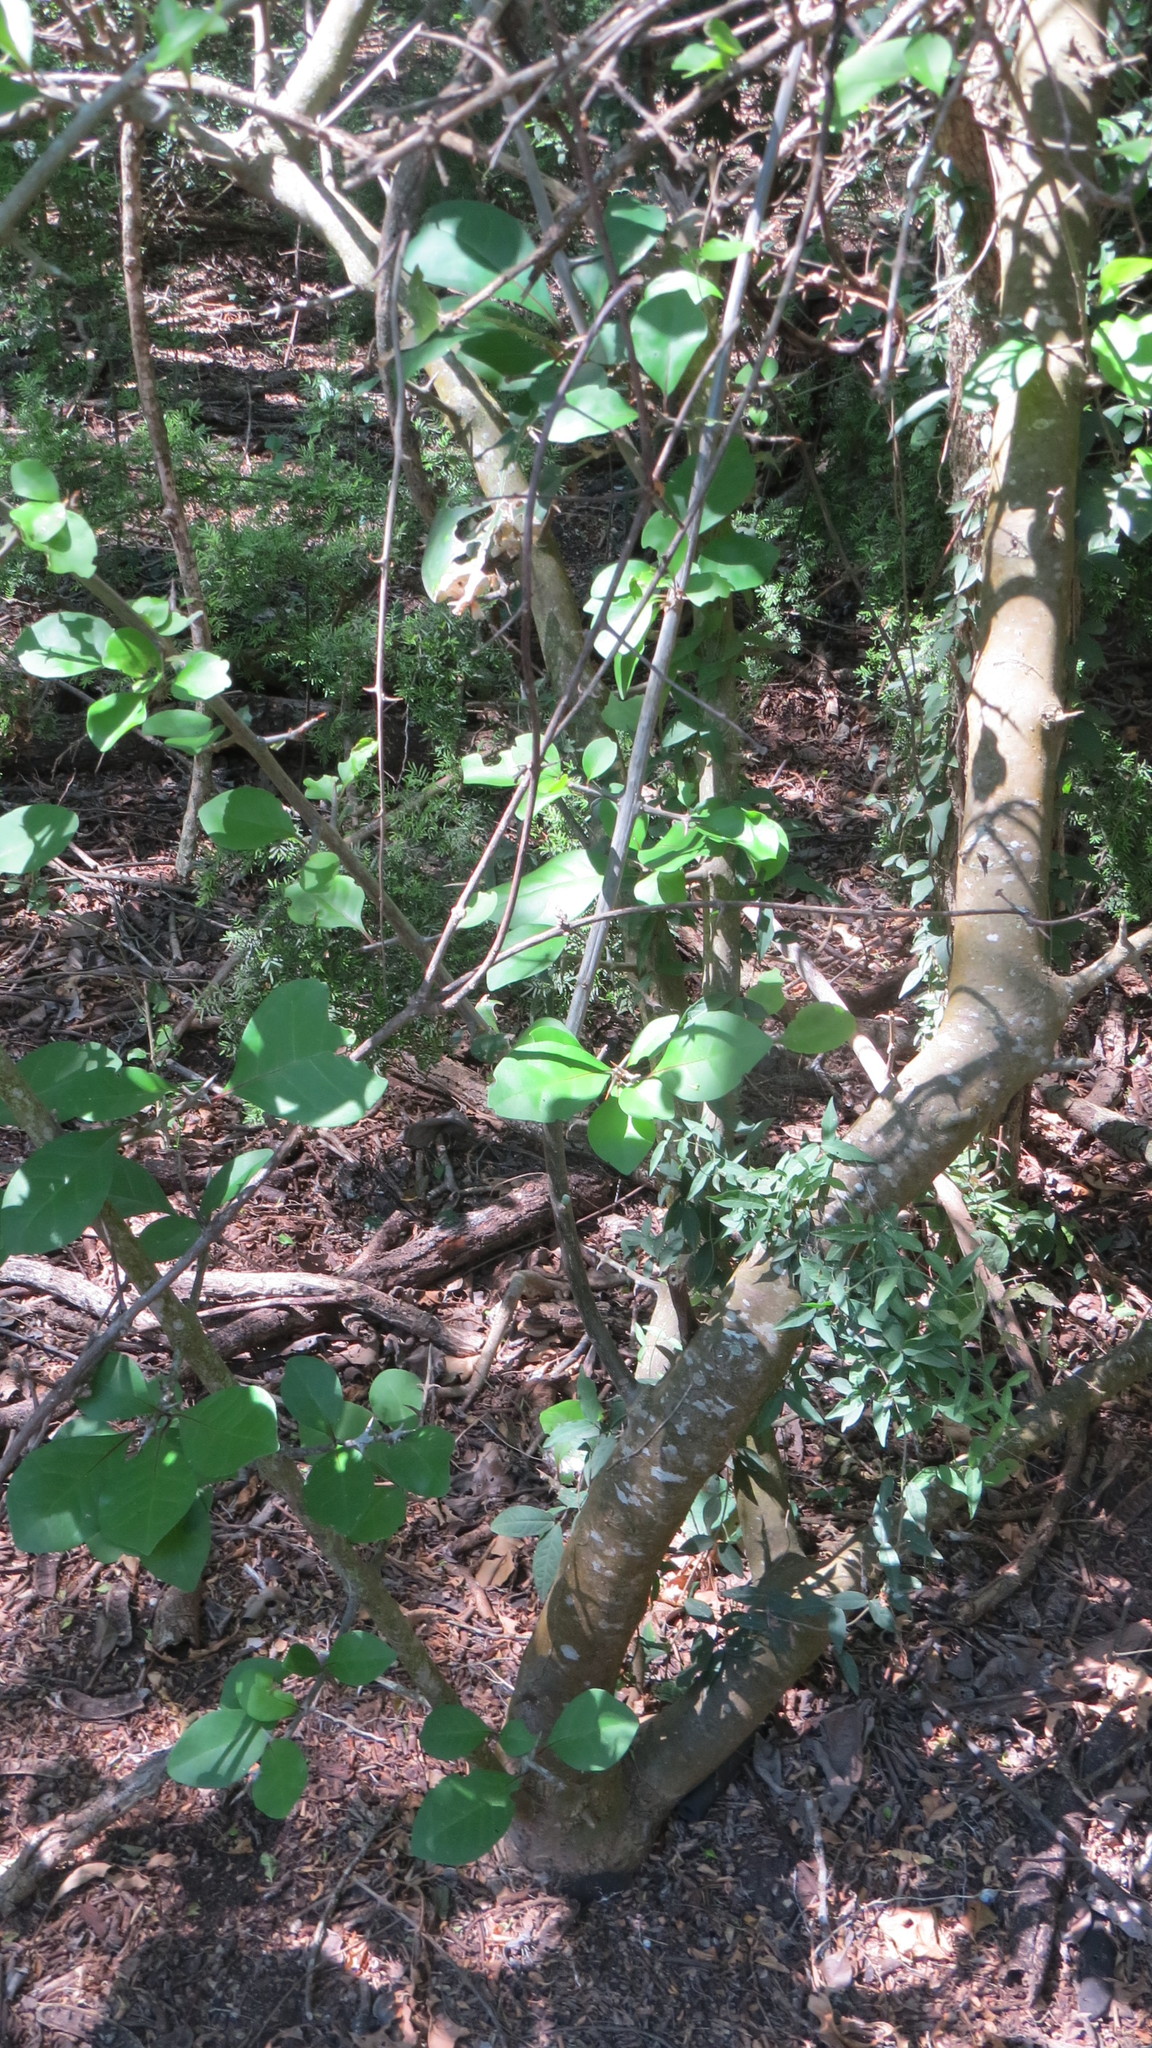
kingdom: Plantae
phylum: Tracheophyta
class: Magnoliopsida
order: Caryophyllales
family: Nyctaginaceae
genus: Pisonia
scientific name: Pisonia aculeata
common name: Cockspur vine
